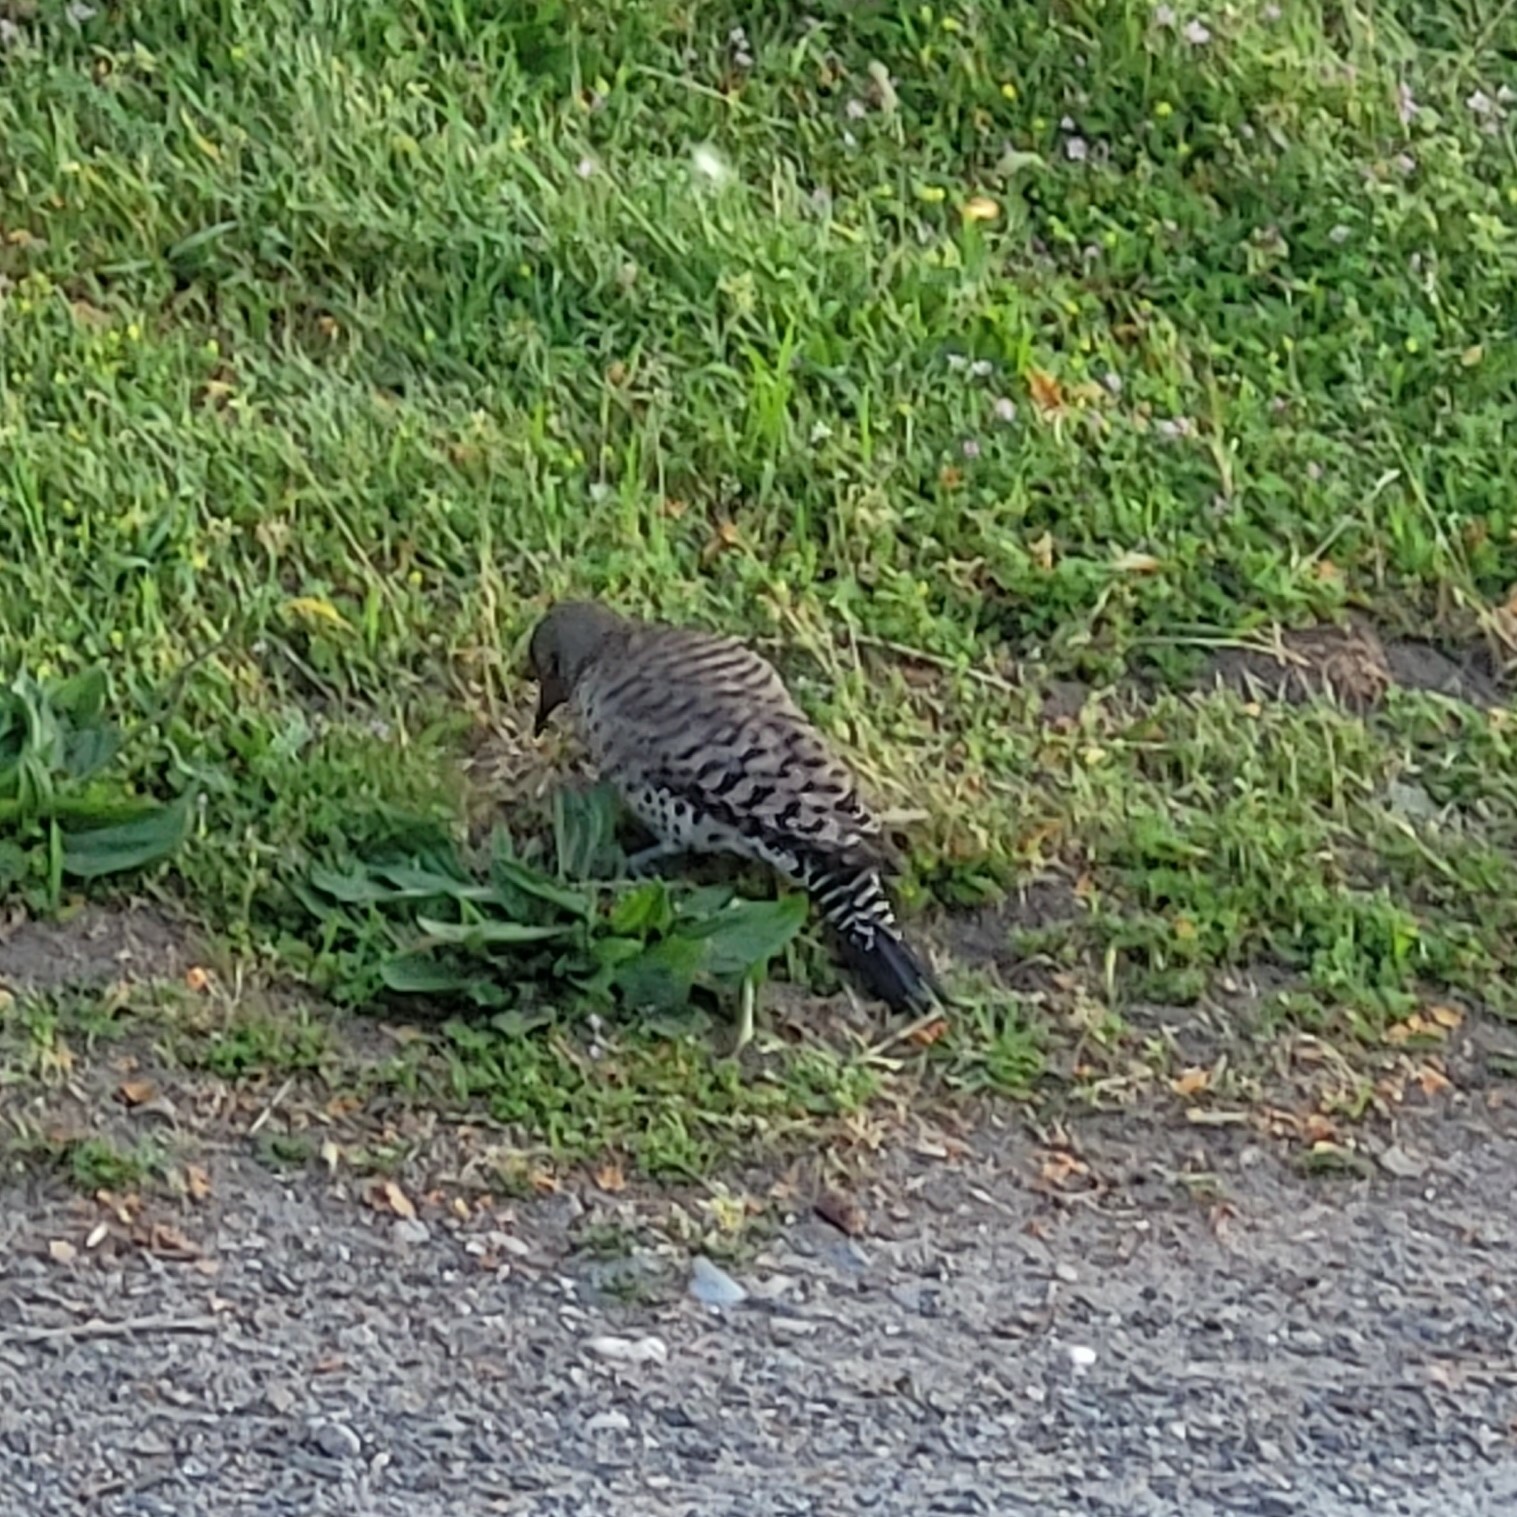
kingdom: Animalia
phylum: Chordata
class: Aves
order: Piciformes
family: Picidae
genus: Colaptes
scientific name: Colaptes auratus
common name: Northern flicker
